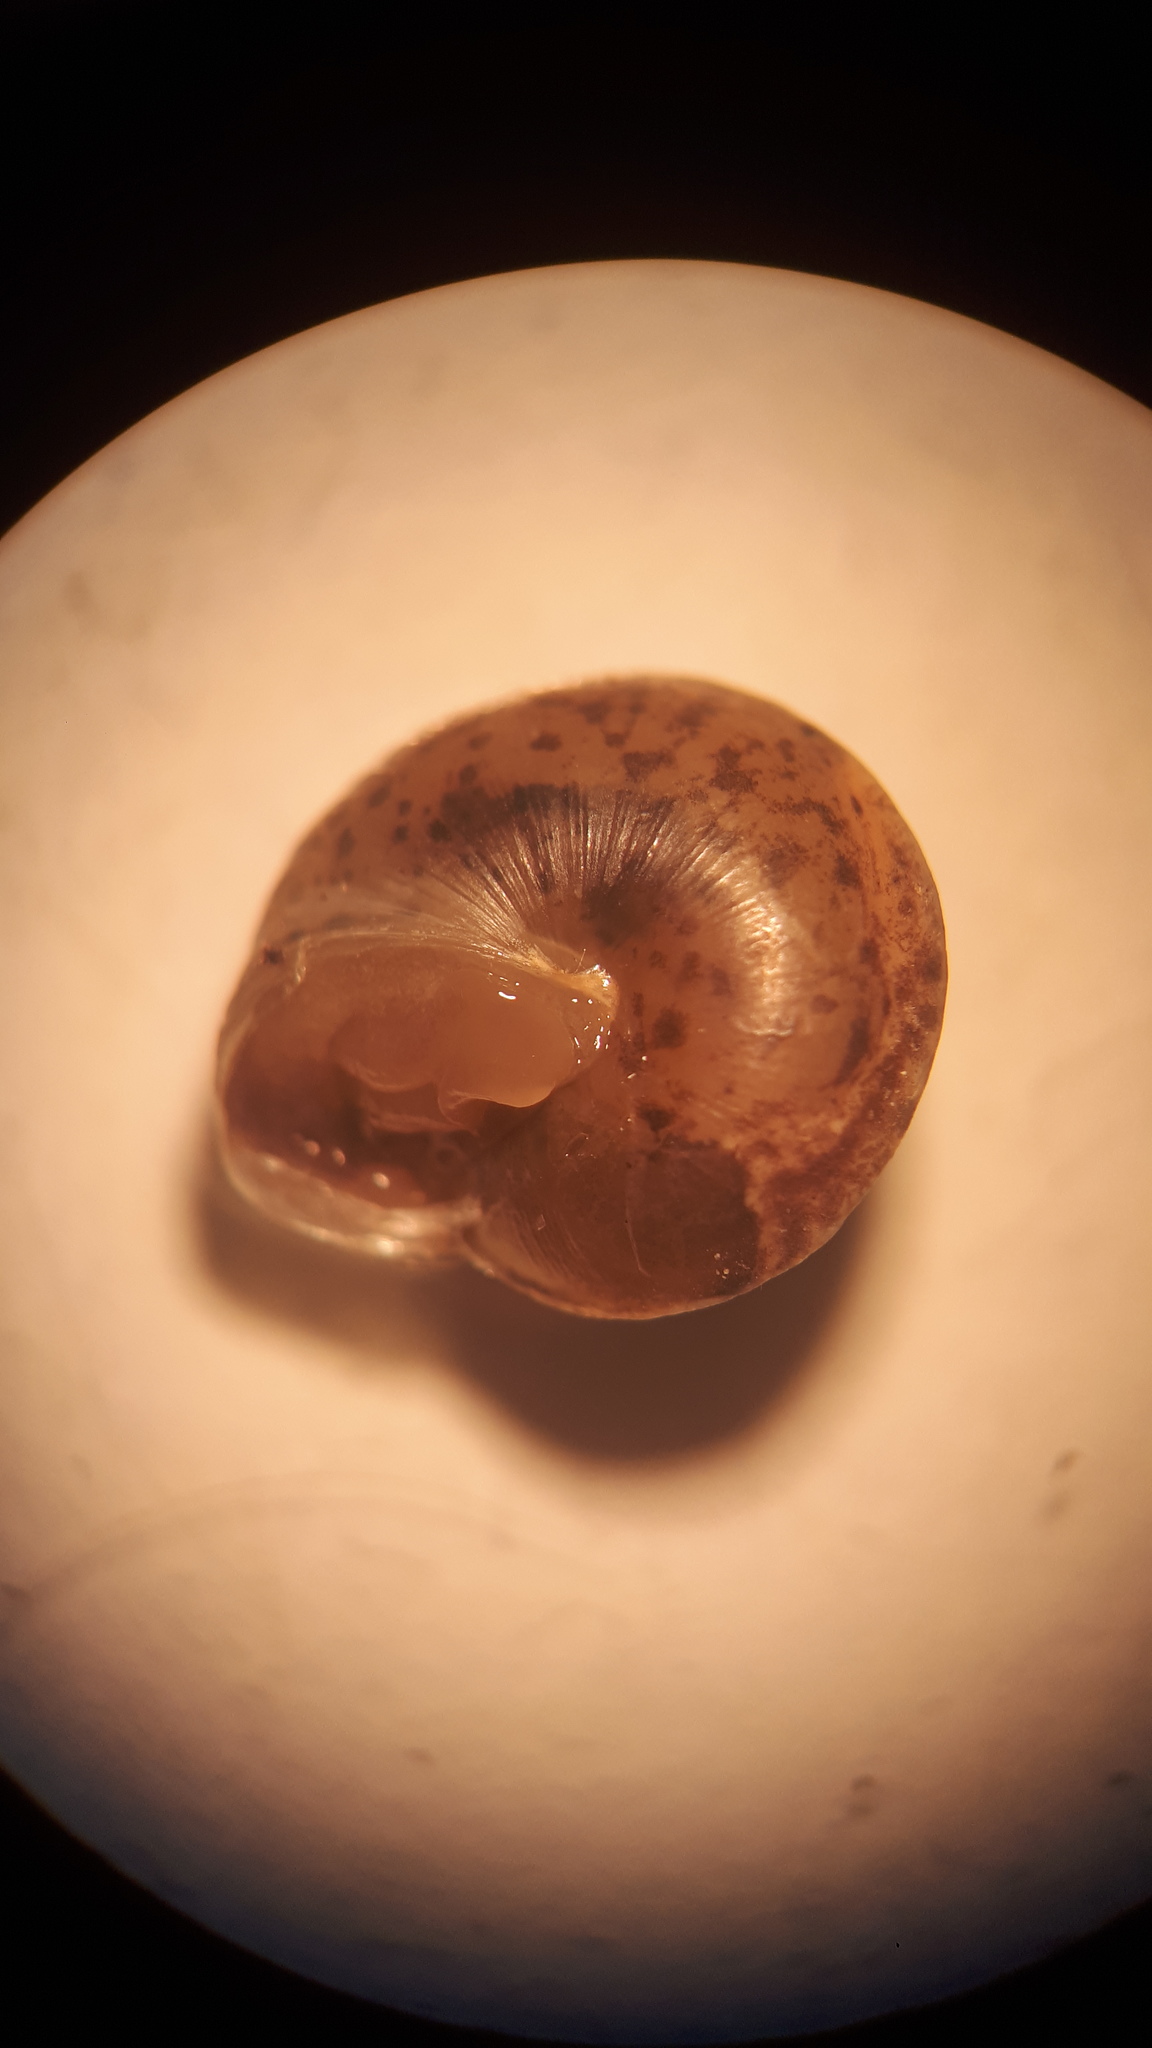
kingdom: Animalia
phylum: Mollusca
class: Gastropoda
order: Stylommatophora
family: Hygromiidae
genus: Hygromia
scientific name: Hygromia cinctella
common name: Girdled snail
